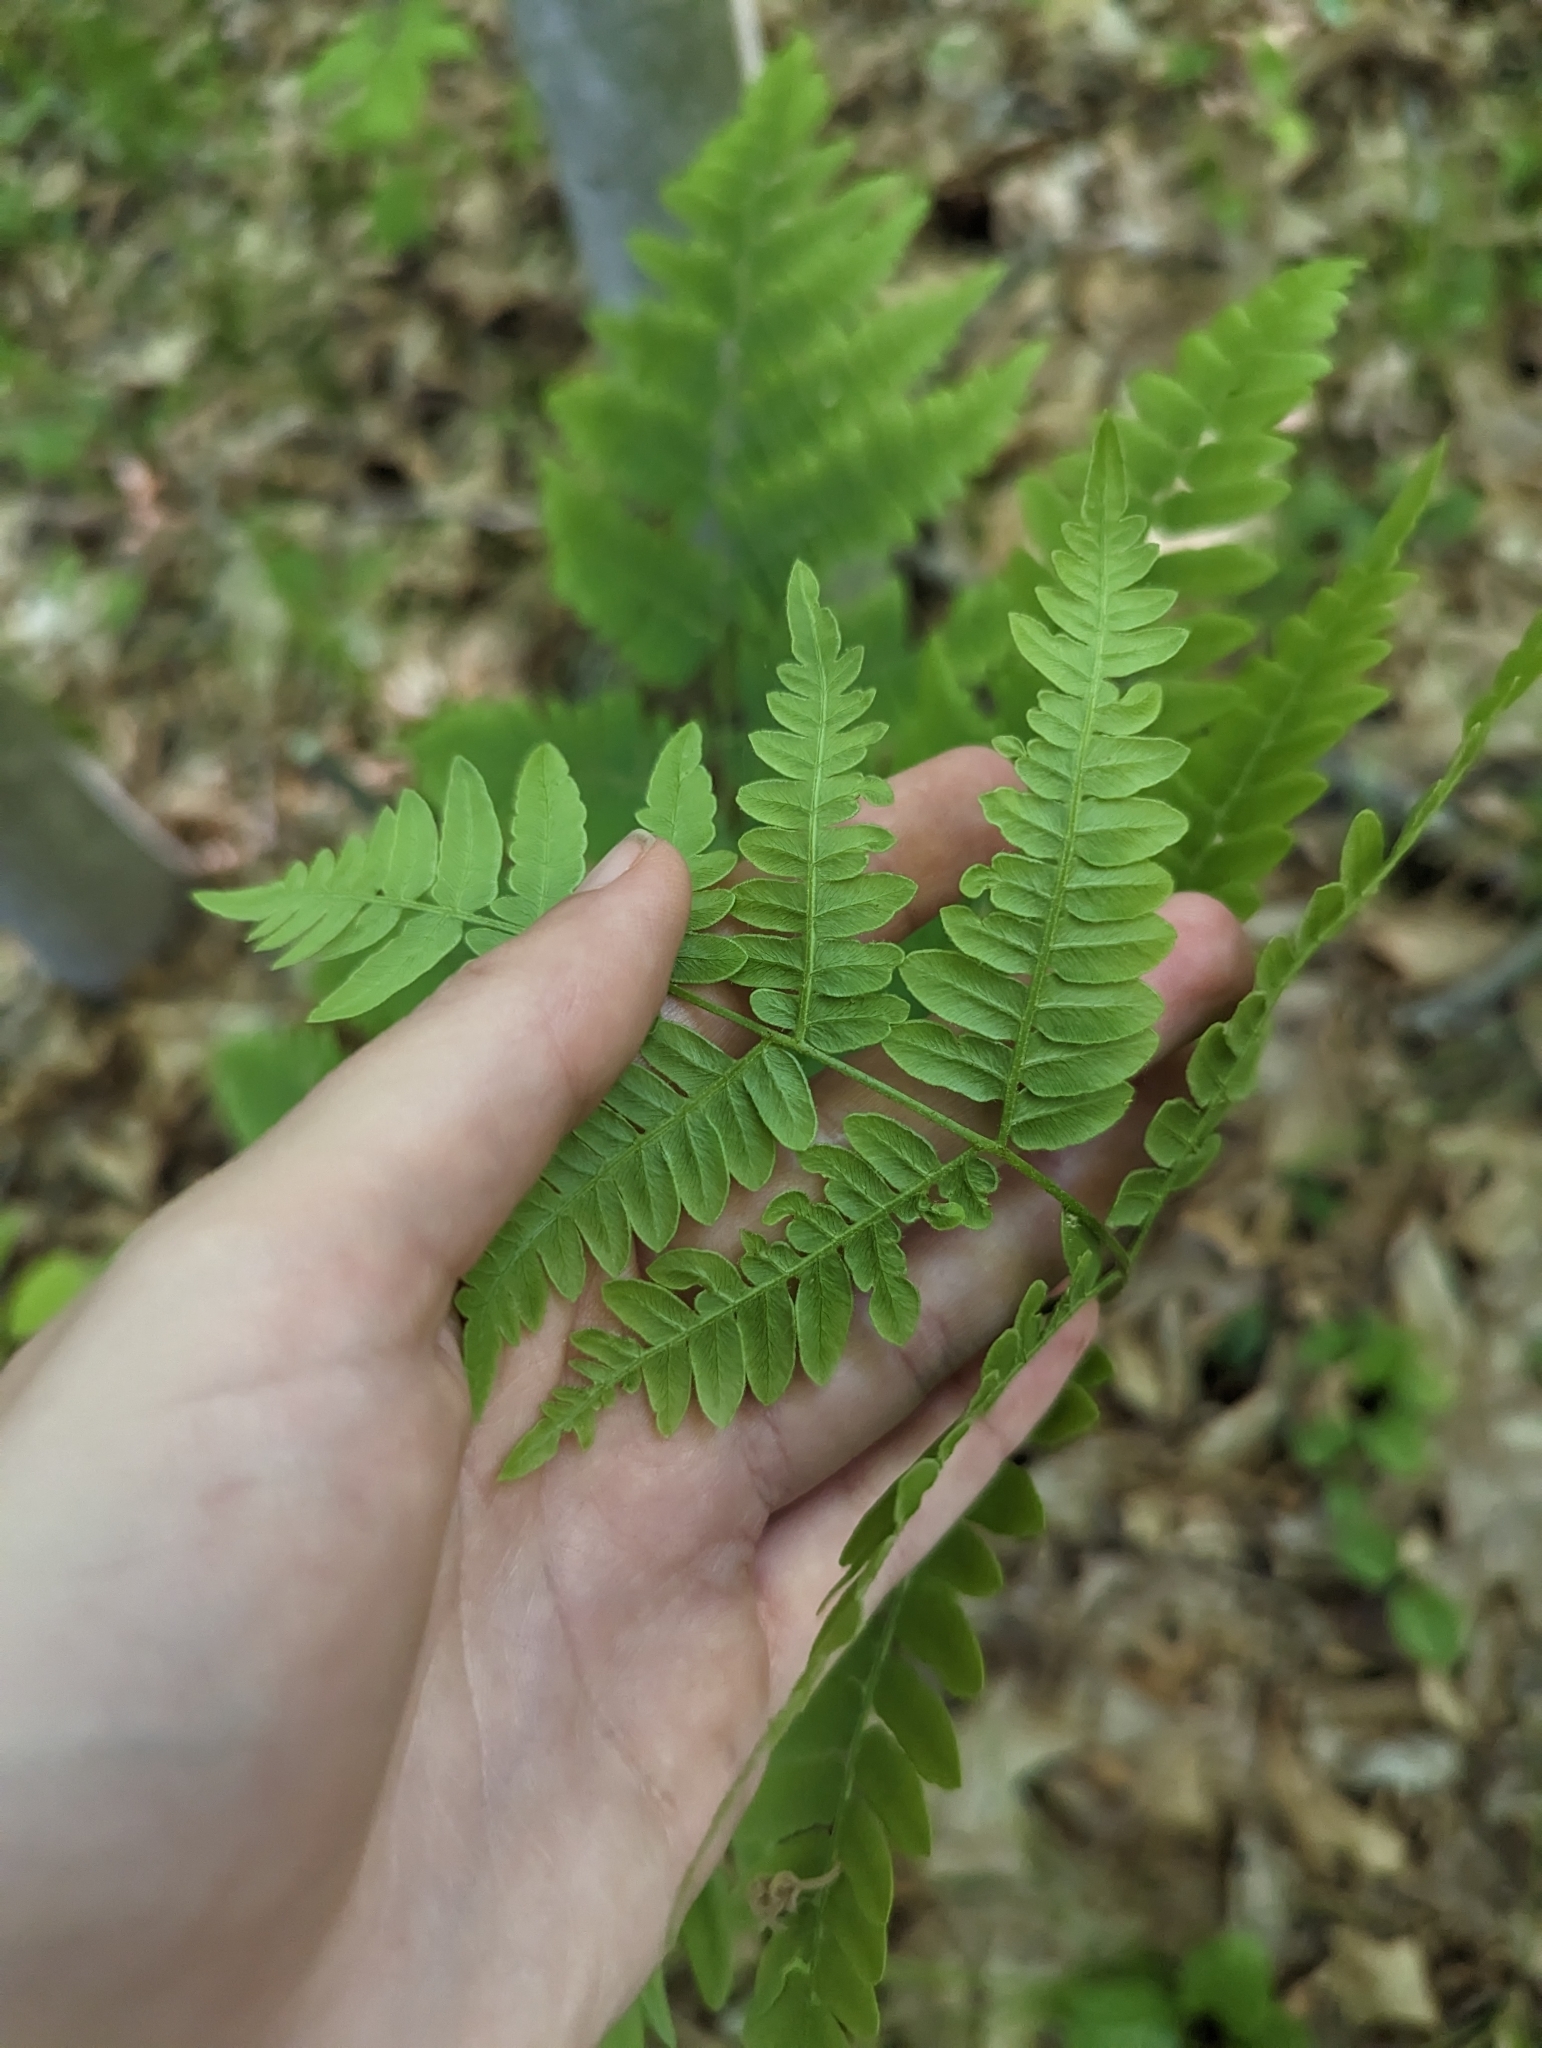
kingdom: Plantae
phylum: Tracheophyta
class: Polypodiopsida
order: Polypodiales
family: Dennstaedtiaceae
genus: Pteridium
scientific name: Pteridium aquilinum
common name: Bracken
